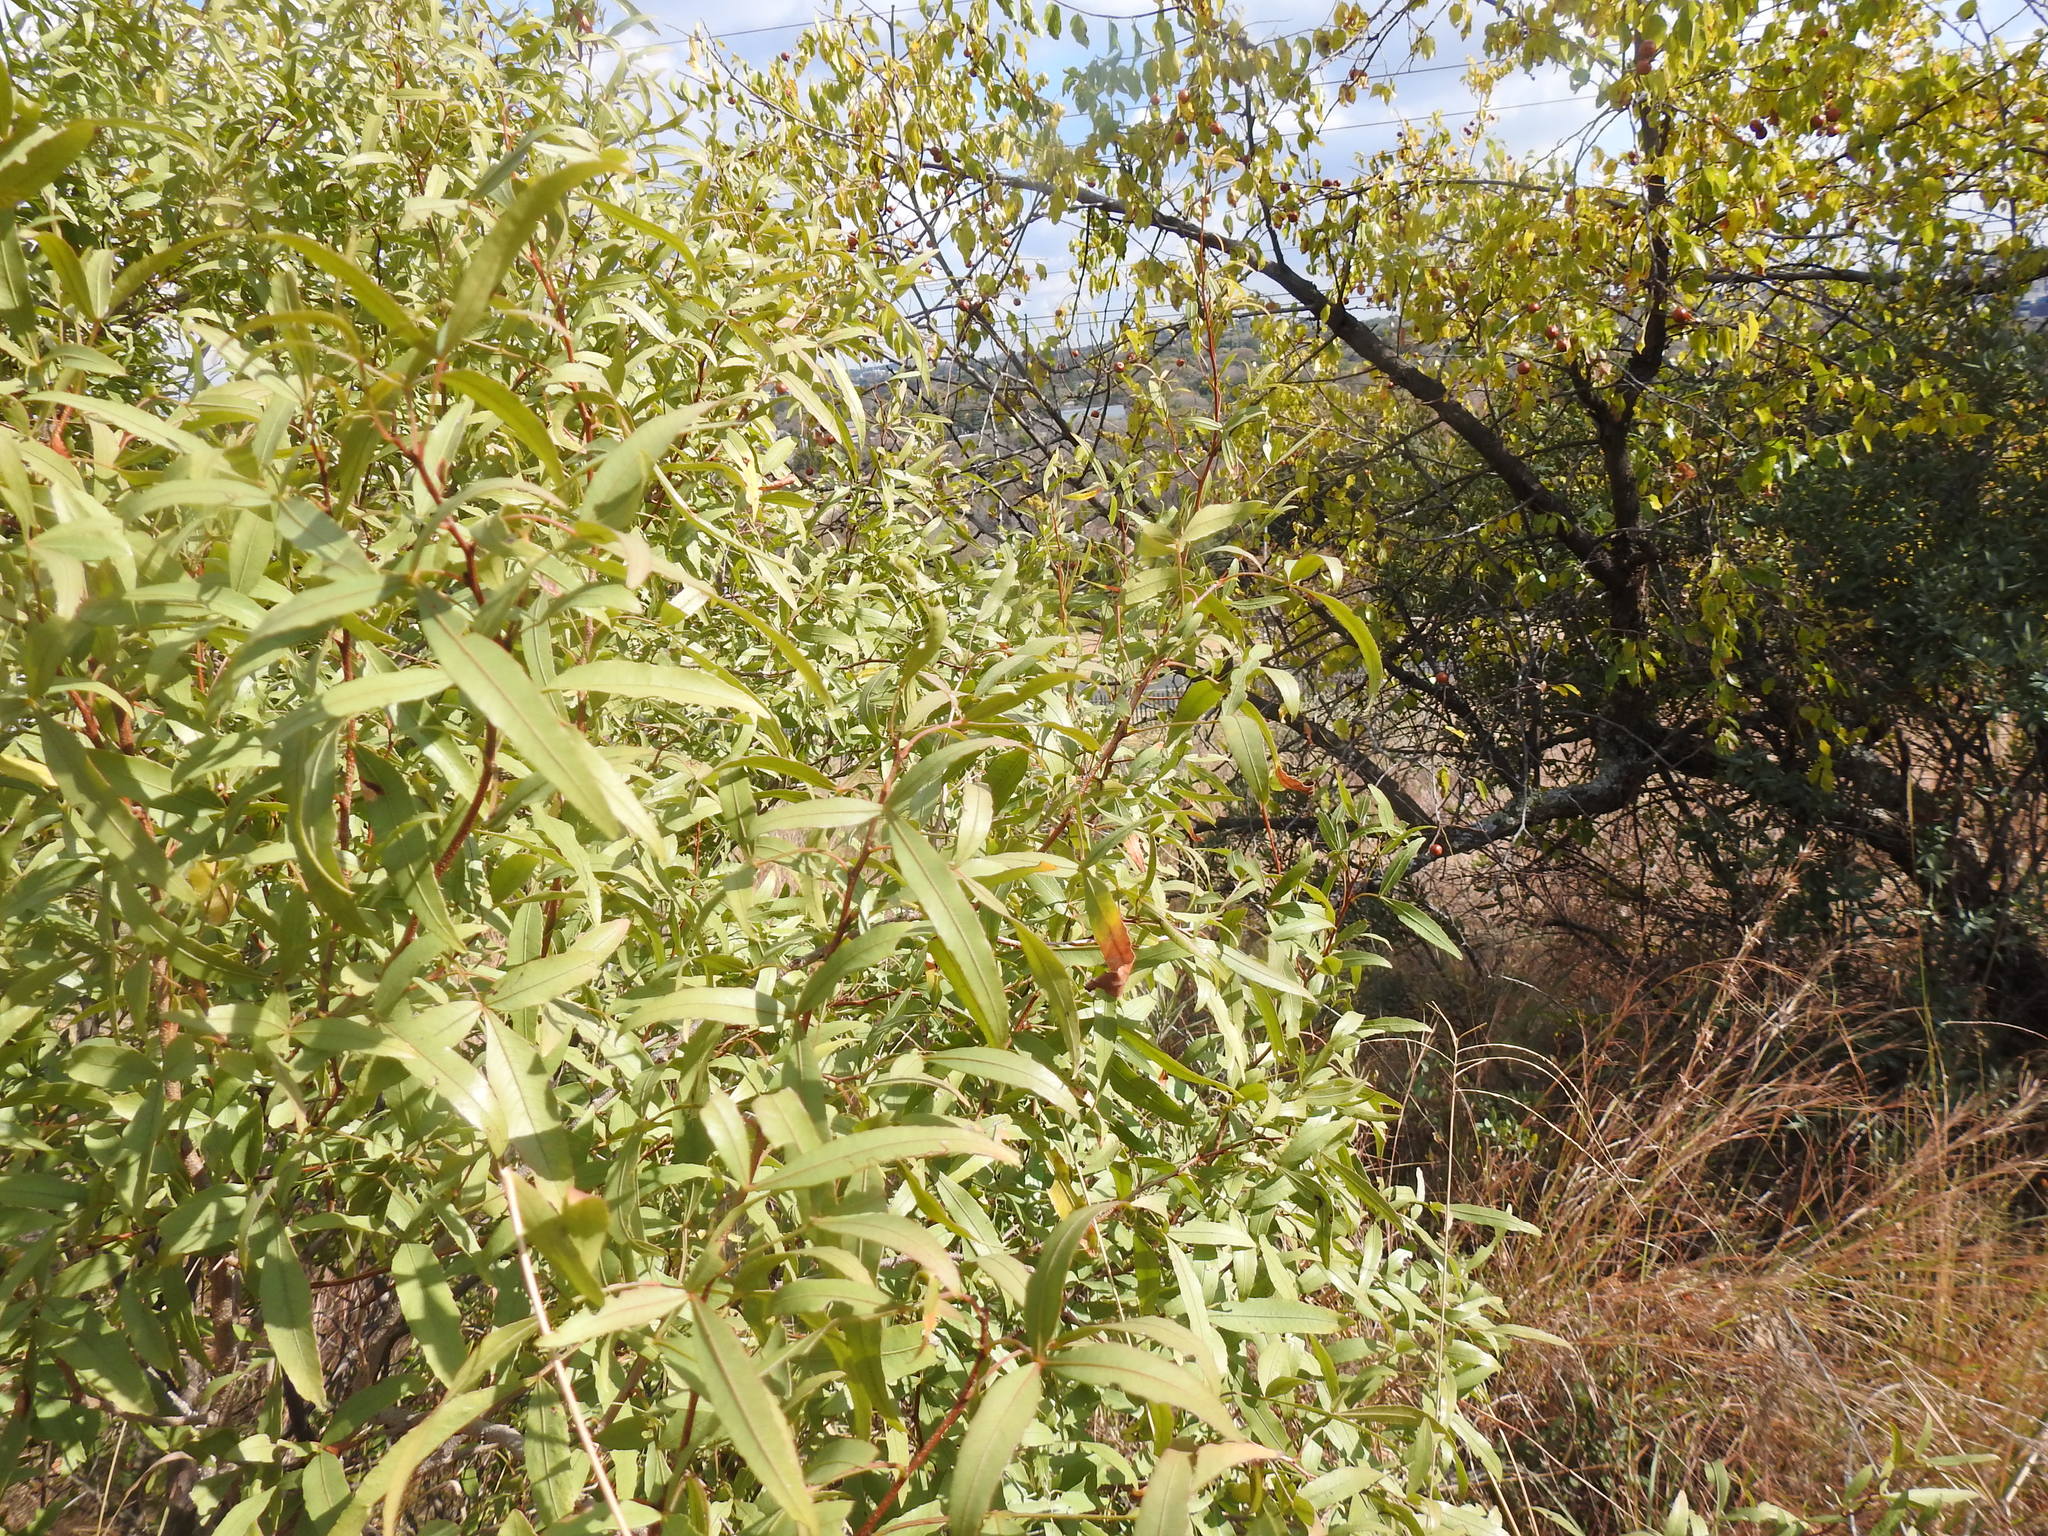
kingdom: Plantae
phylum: Tracheophyta
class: Magnoliopsida
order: Sapindales
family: Anacardiaceae
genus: Searsia
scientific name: Searsia leptodictya
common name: Mountain karee
